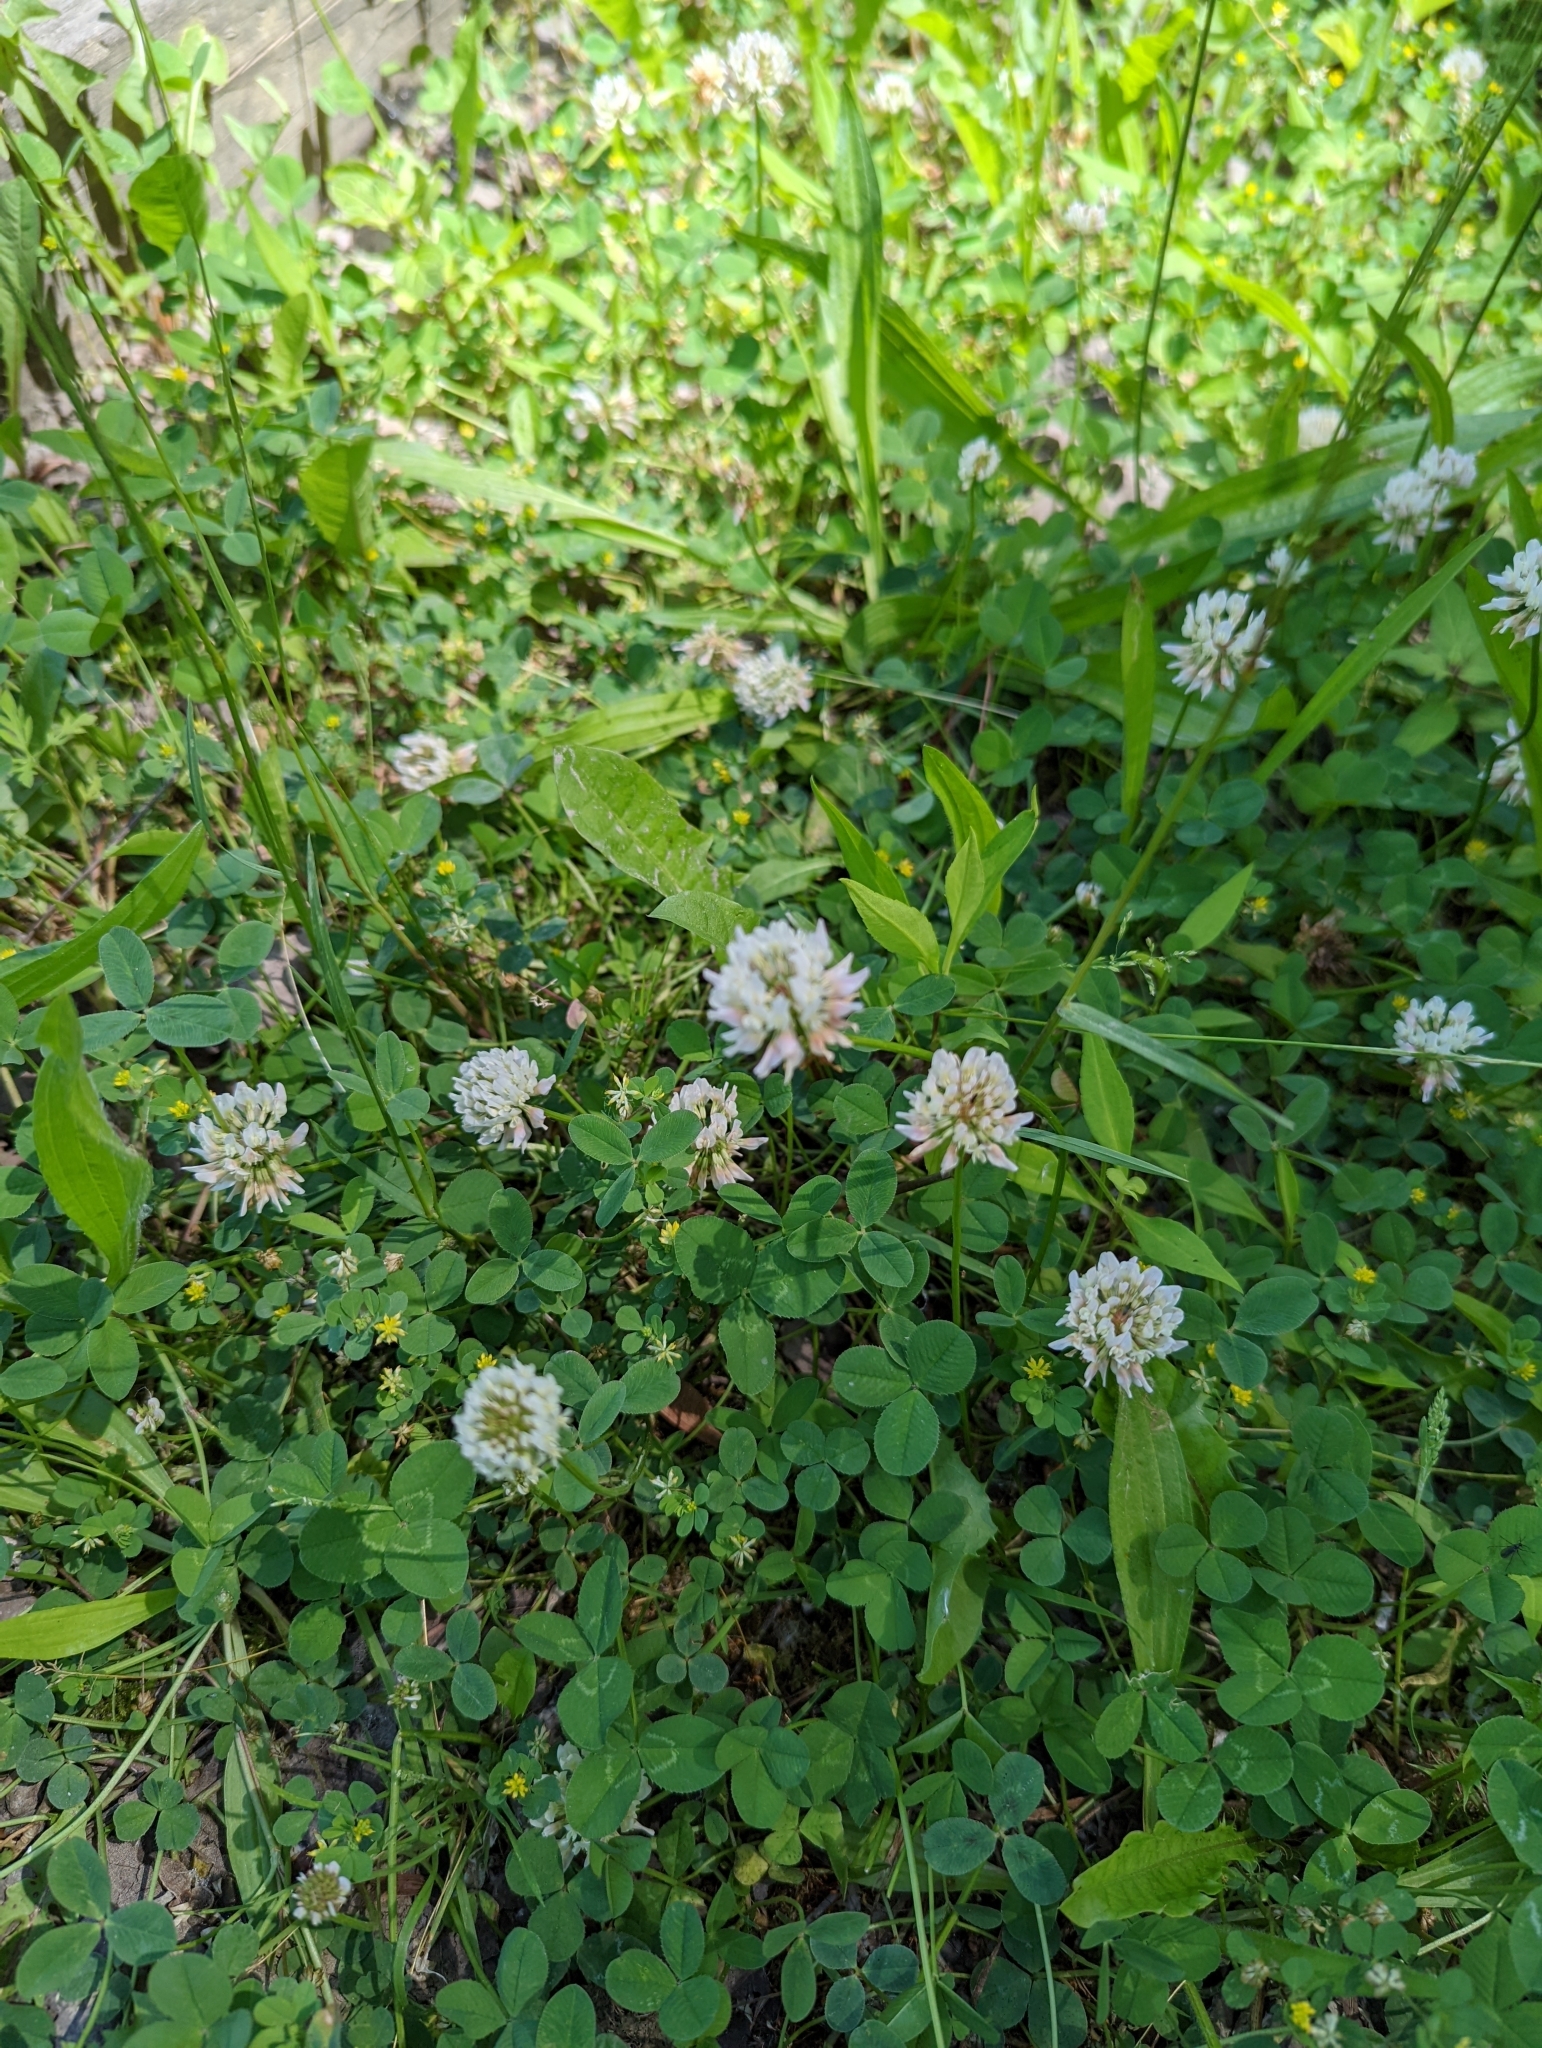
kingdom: Plantae
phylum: Tracheophyta
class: Magnoliopsida
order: Fabales
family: Fabaceae
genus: Trifolium
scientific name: Trifolium repens
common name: White clover
